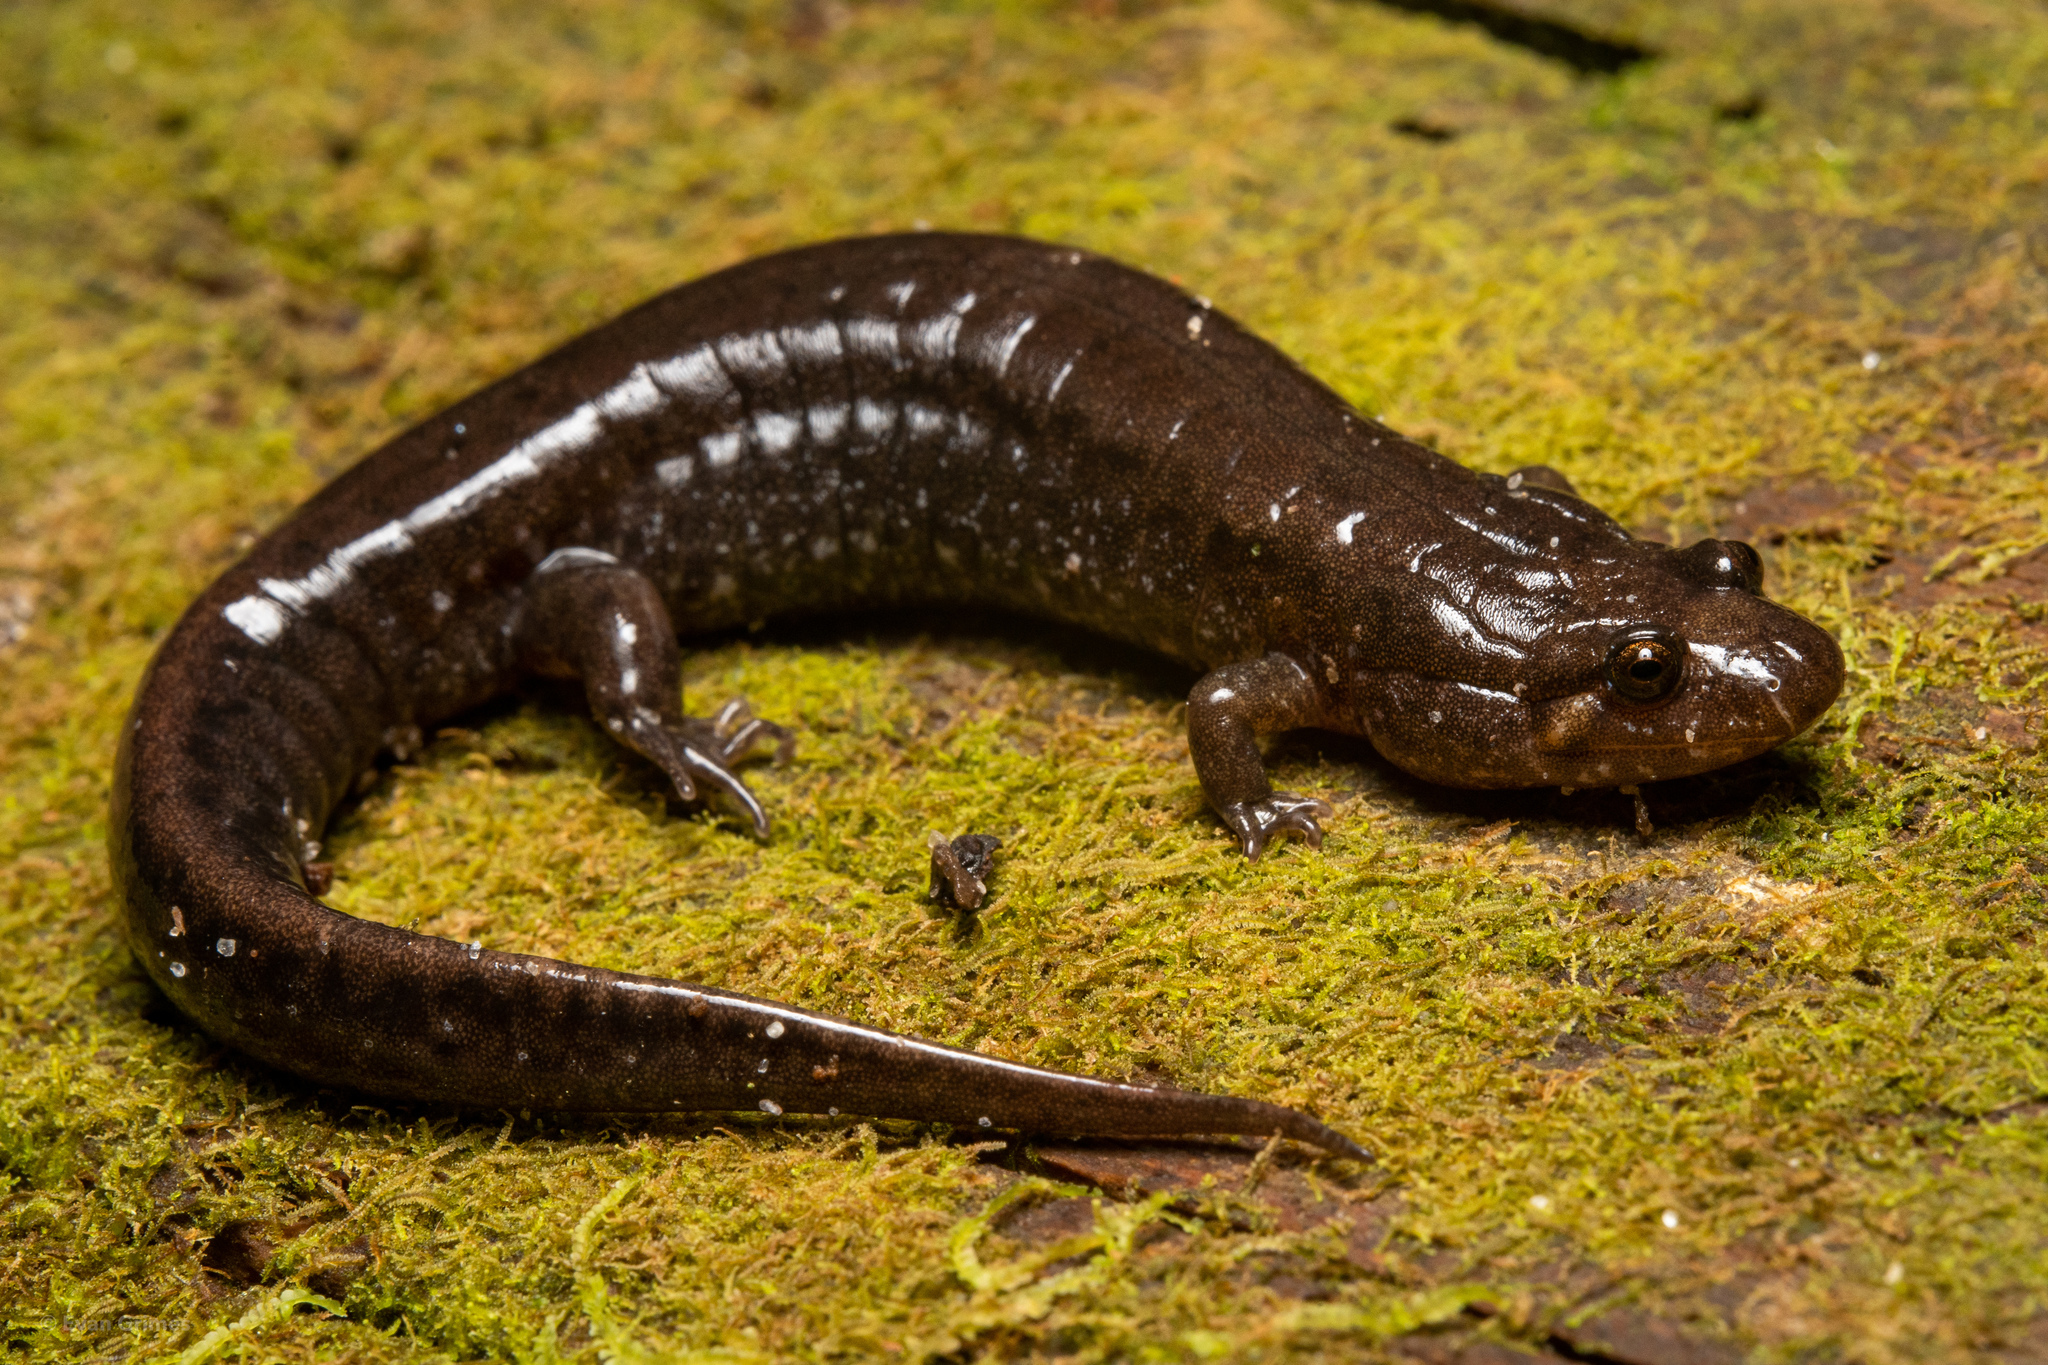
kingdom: Animalia
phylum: Chordata
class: Amphibia
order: Caudata
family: Plethodontidae
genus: Desmognathus
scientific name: Desmognathus conanti
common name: Spotted dusky salamander
